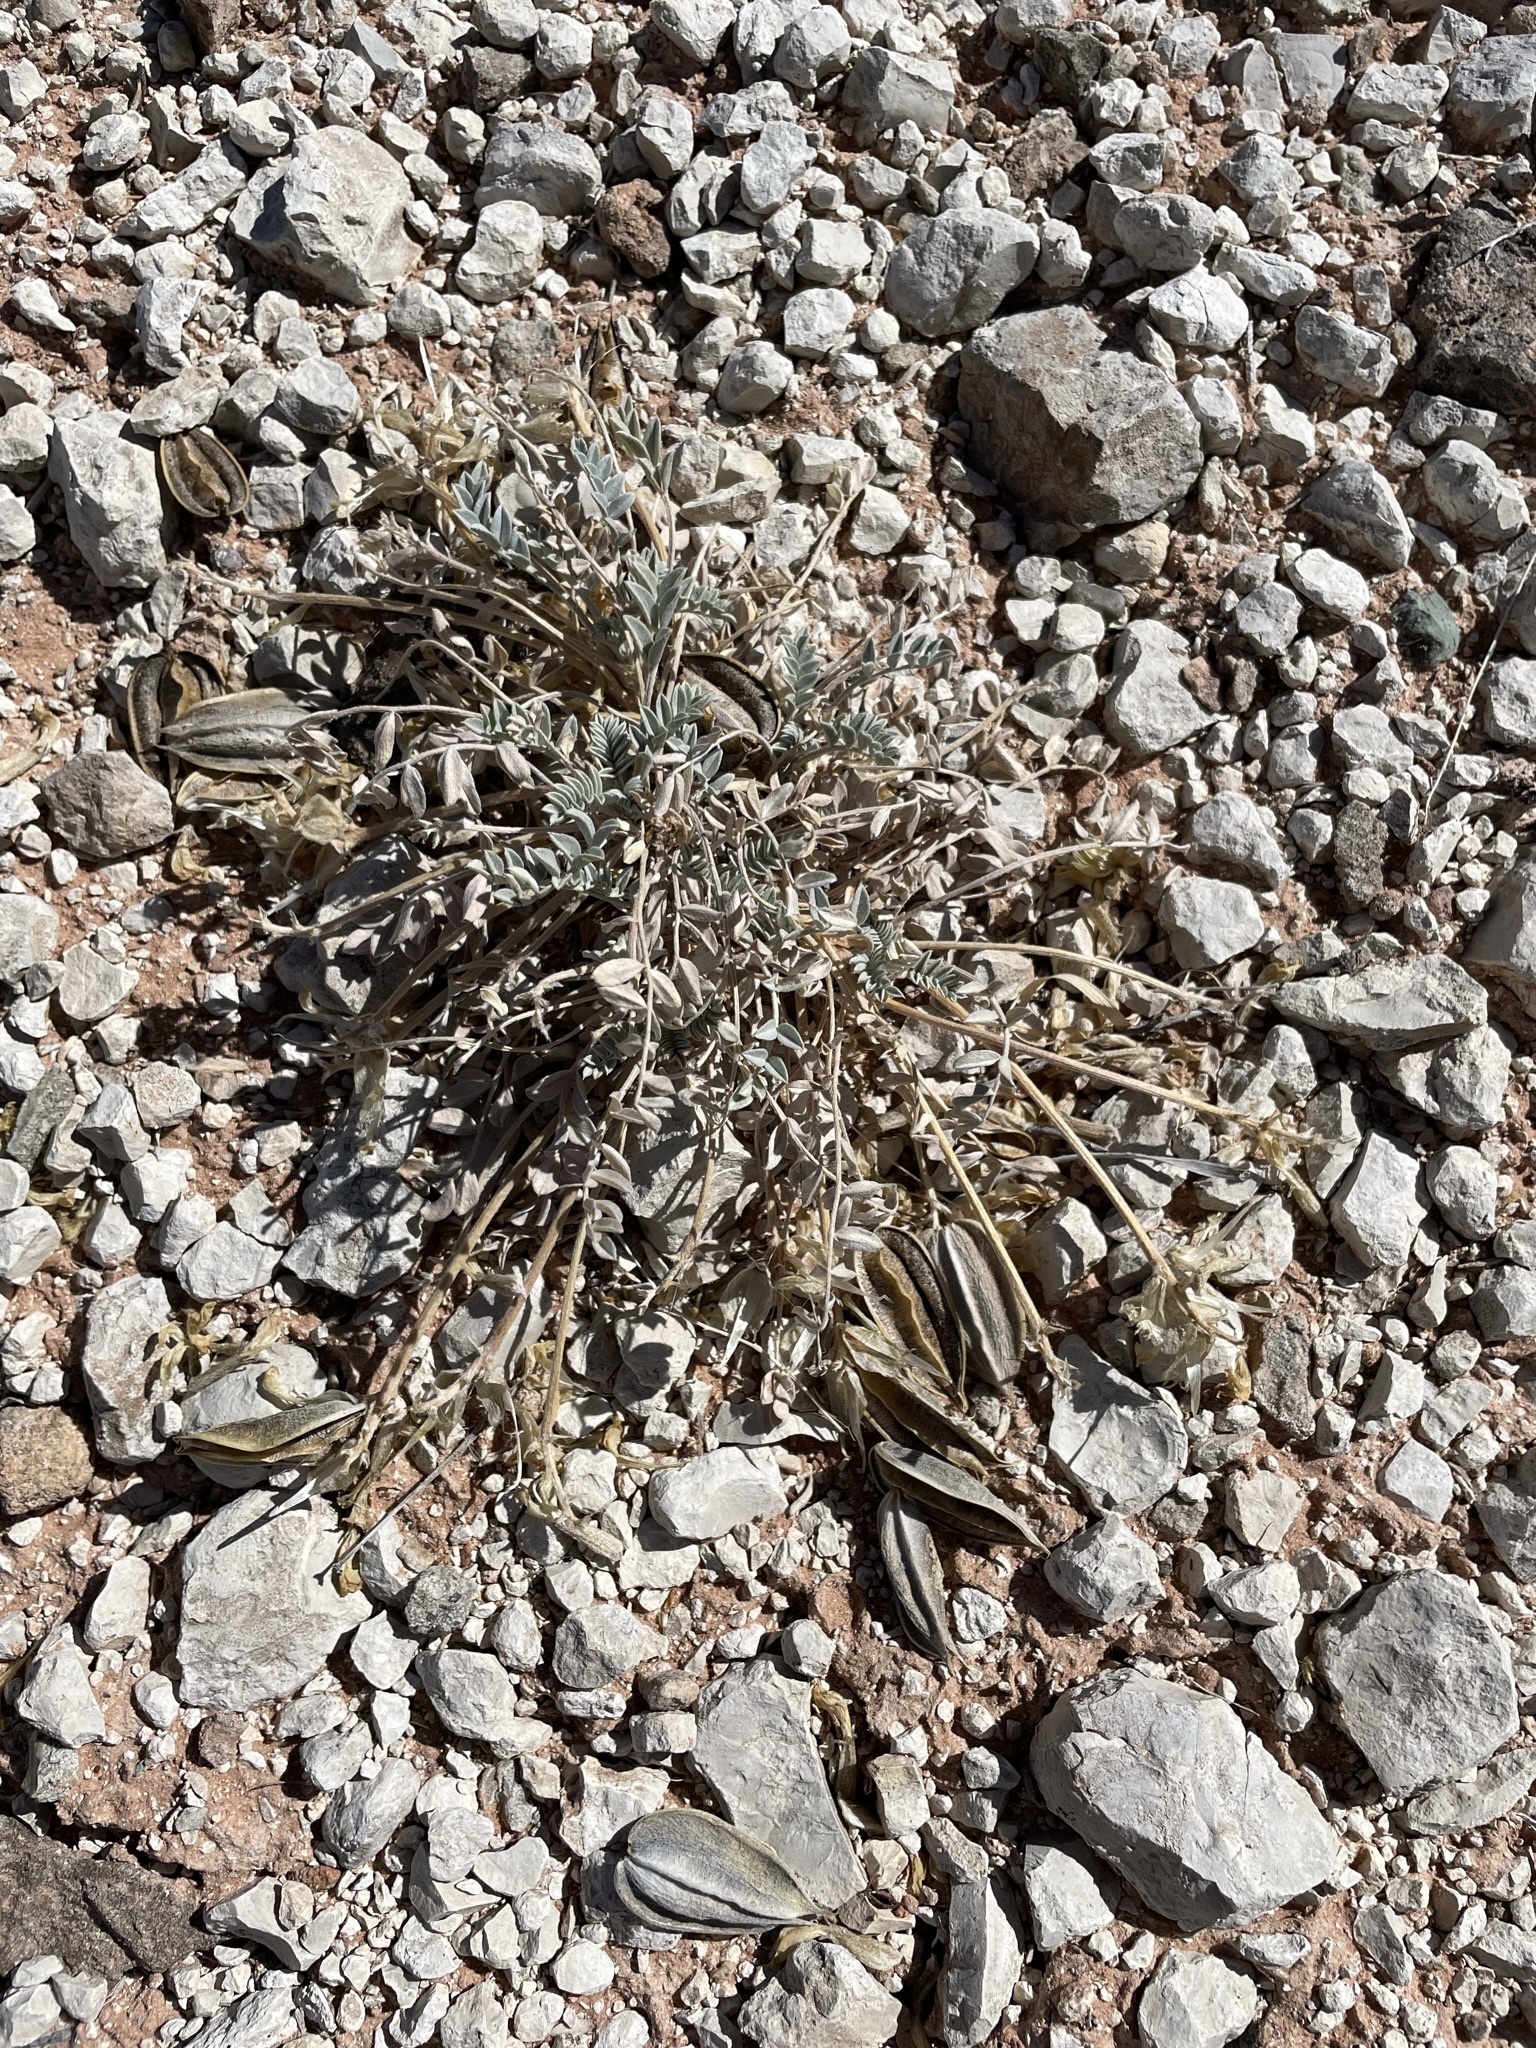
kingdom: Plantae
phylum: Tracheophyta
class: Magnoliopsida
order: Fabales
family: Fabaceae
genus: Astragalus
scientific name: Astragalus cymboides
